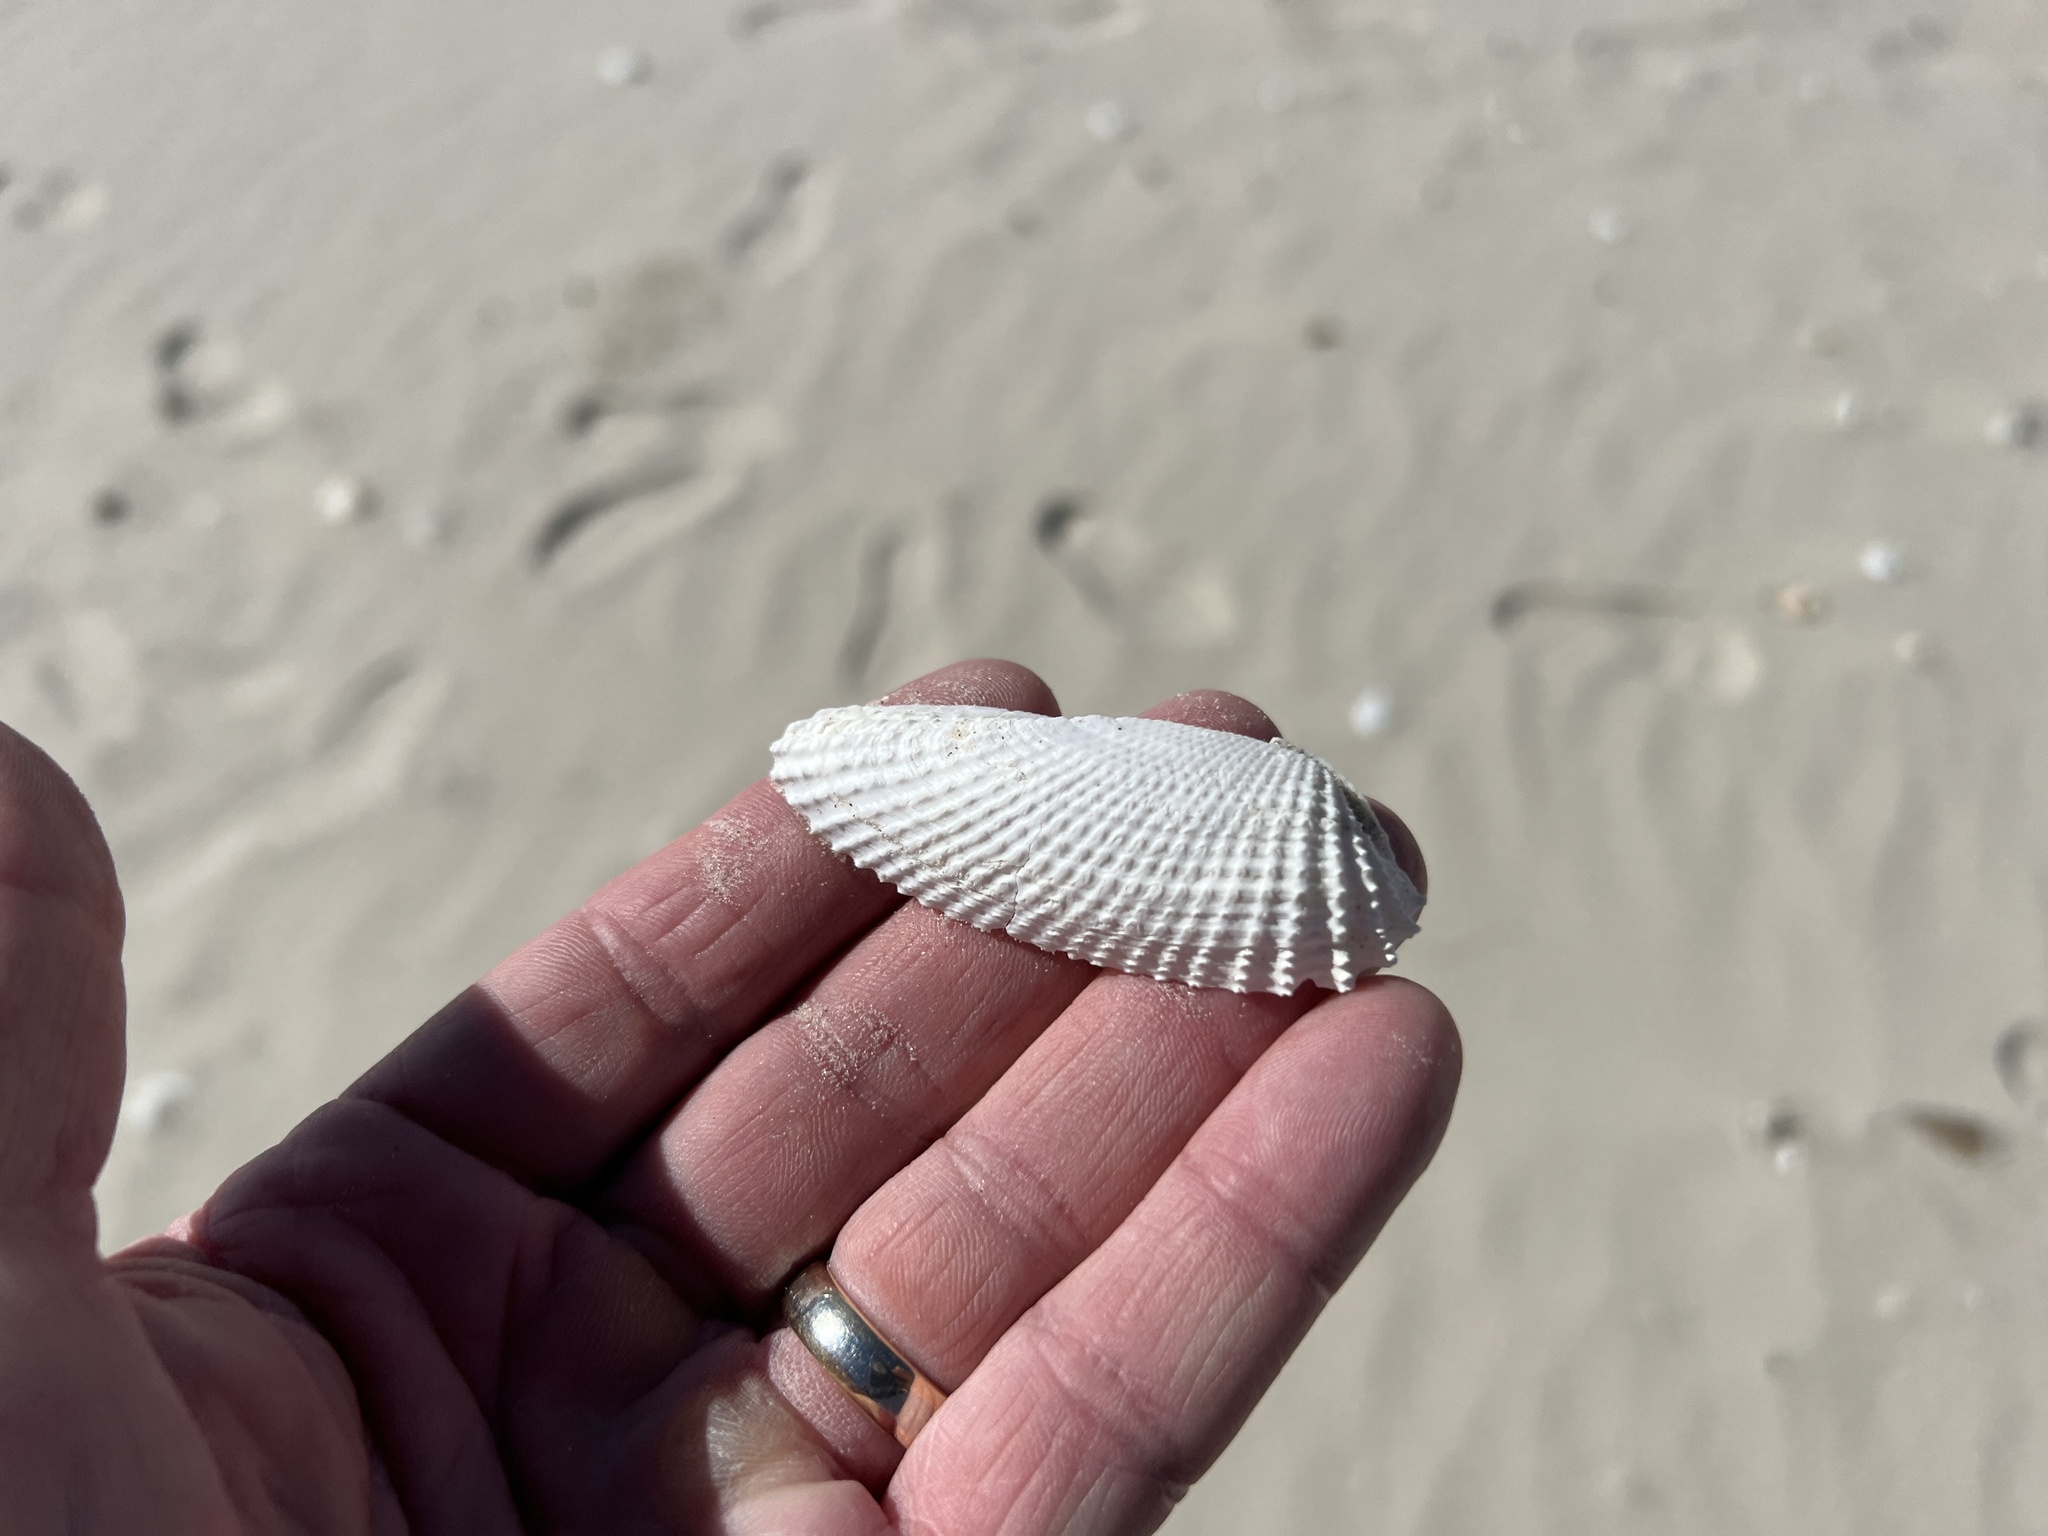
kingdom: Animalia
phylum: Mollusca
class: Bivalvia
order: Myida
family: Pholadidae
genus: Cyrtopleura
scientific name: Cyrtopleura costata
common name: Angel wing
